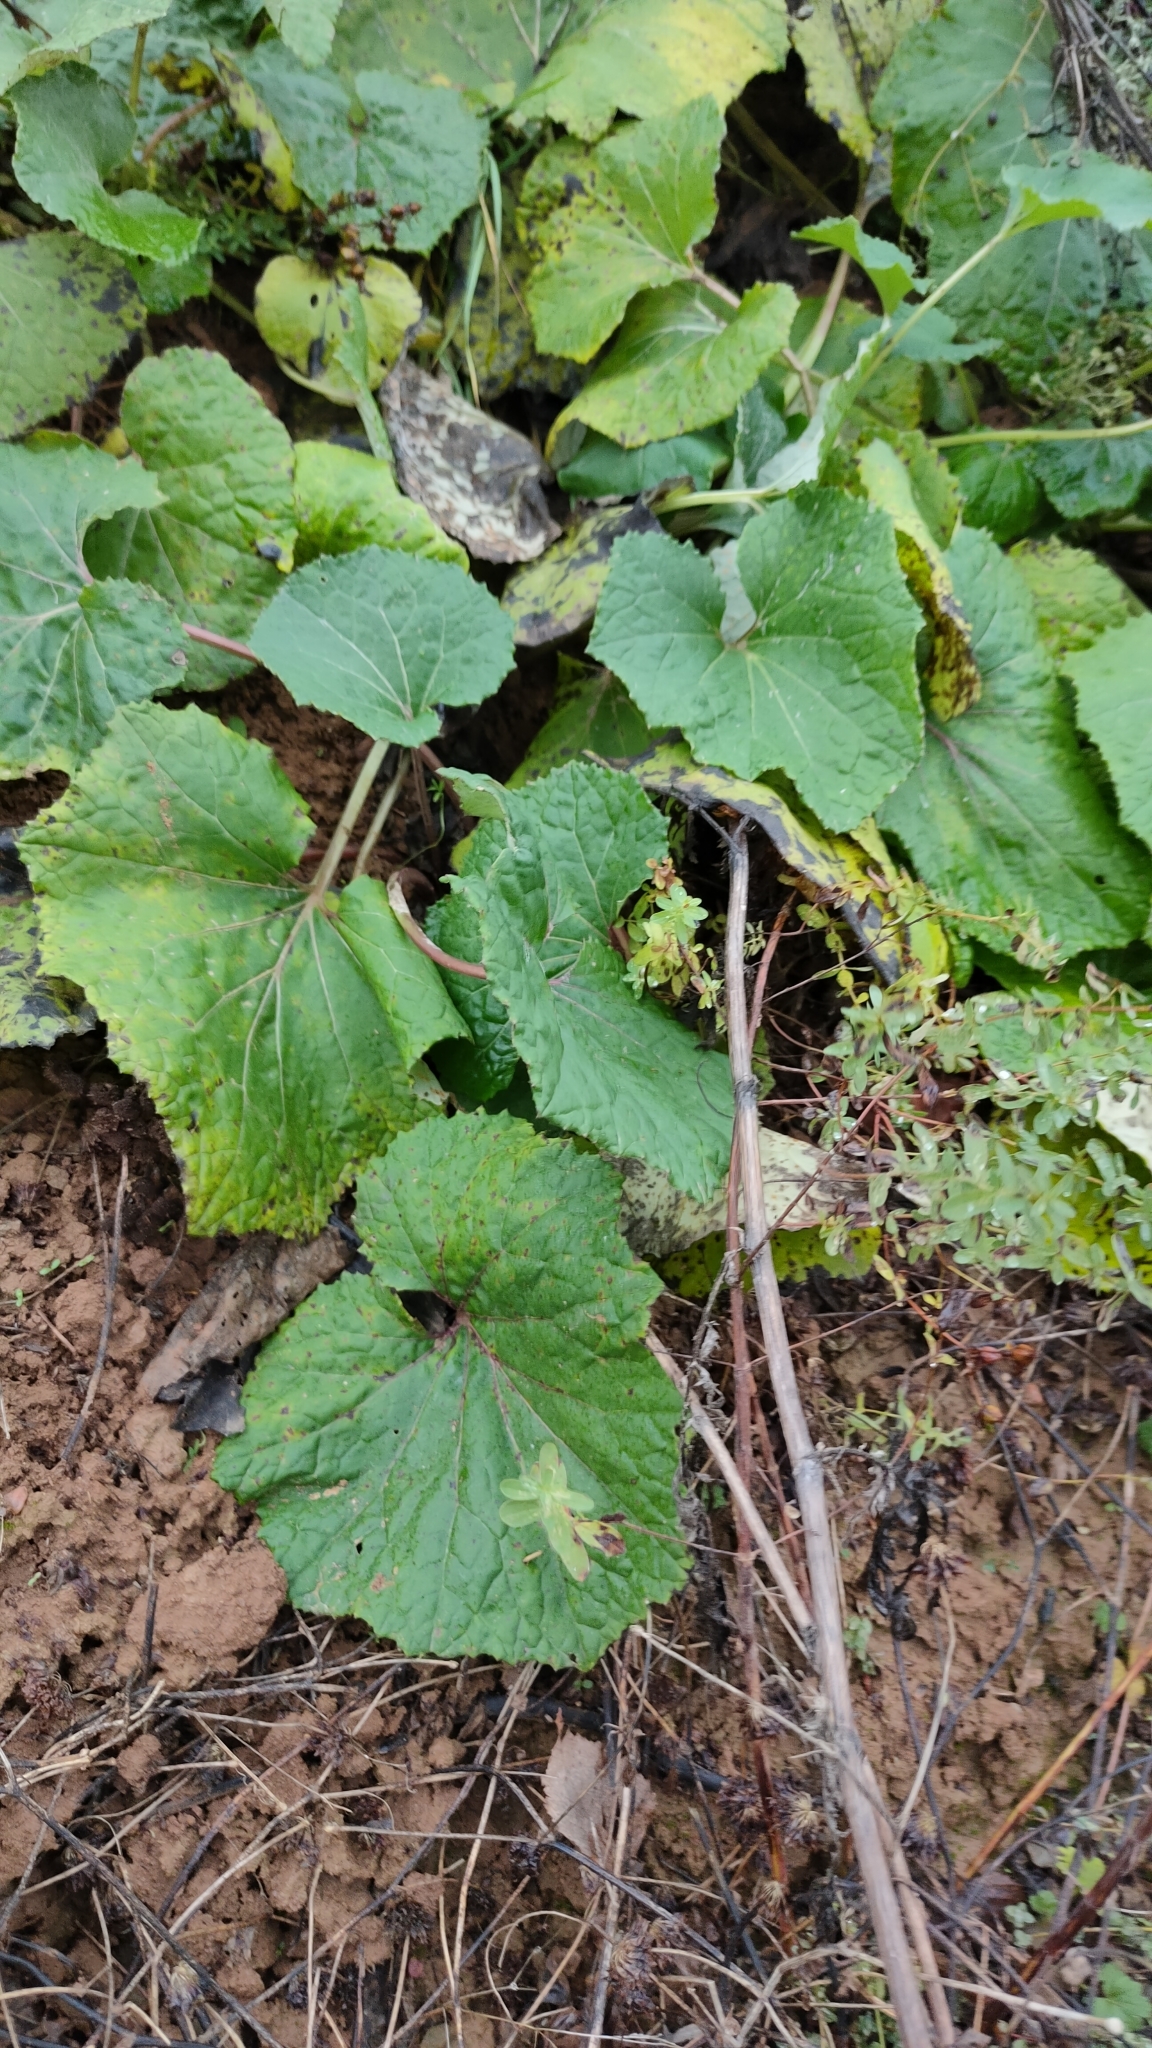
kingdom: Plantae
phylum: Tracheophyta
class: Magnoliopsida
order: Asterales
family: Asteraceae
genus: Tussilago
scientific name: Tussilago farfara
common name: Coltsfoot
